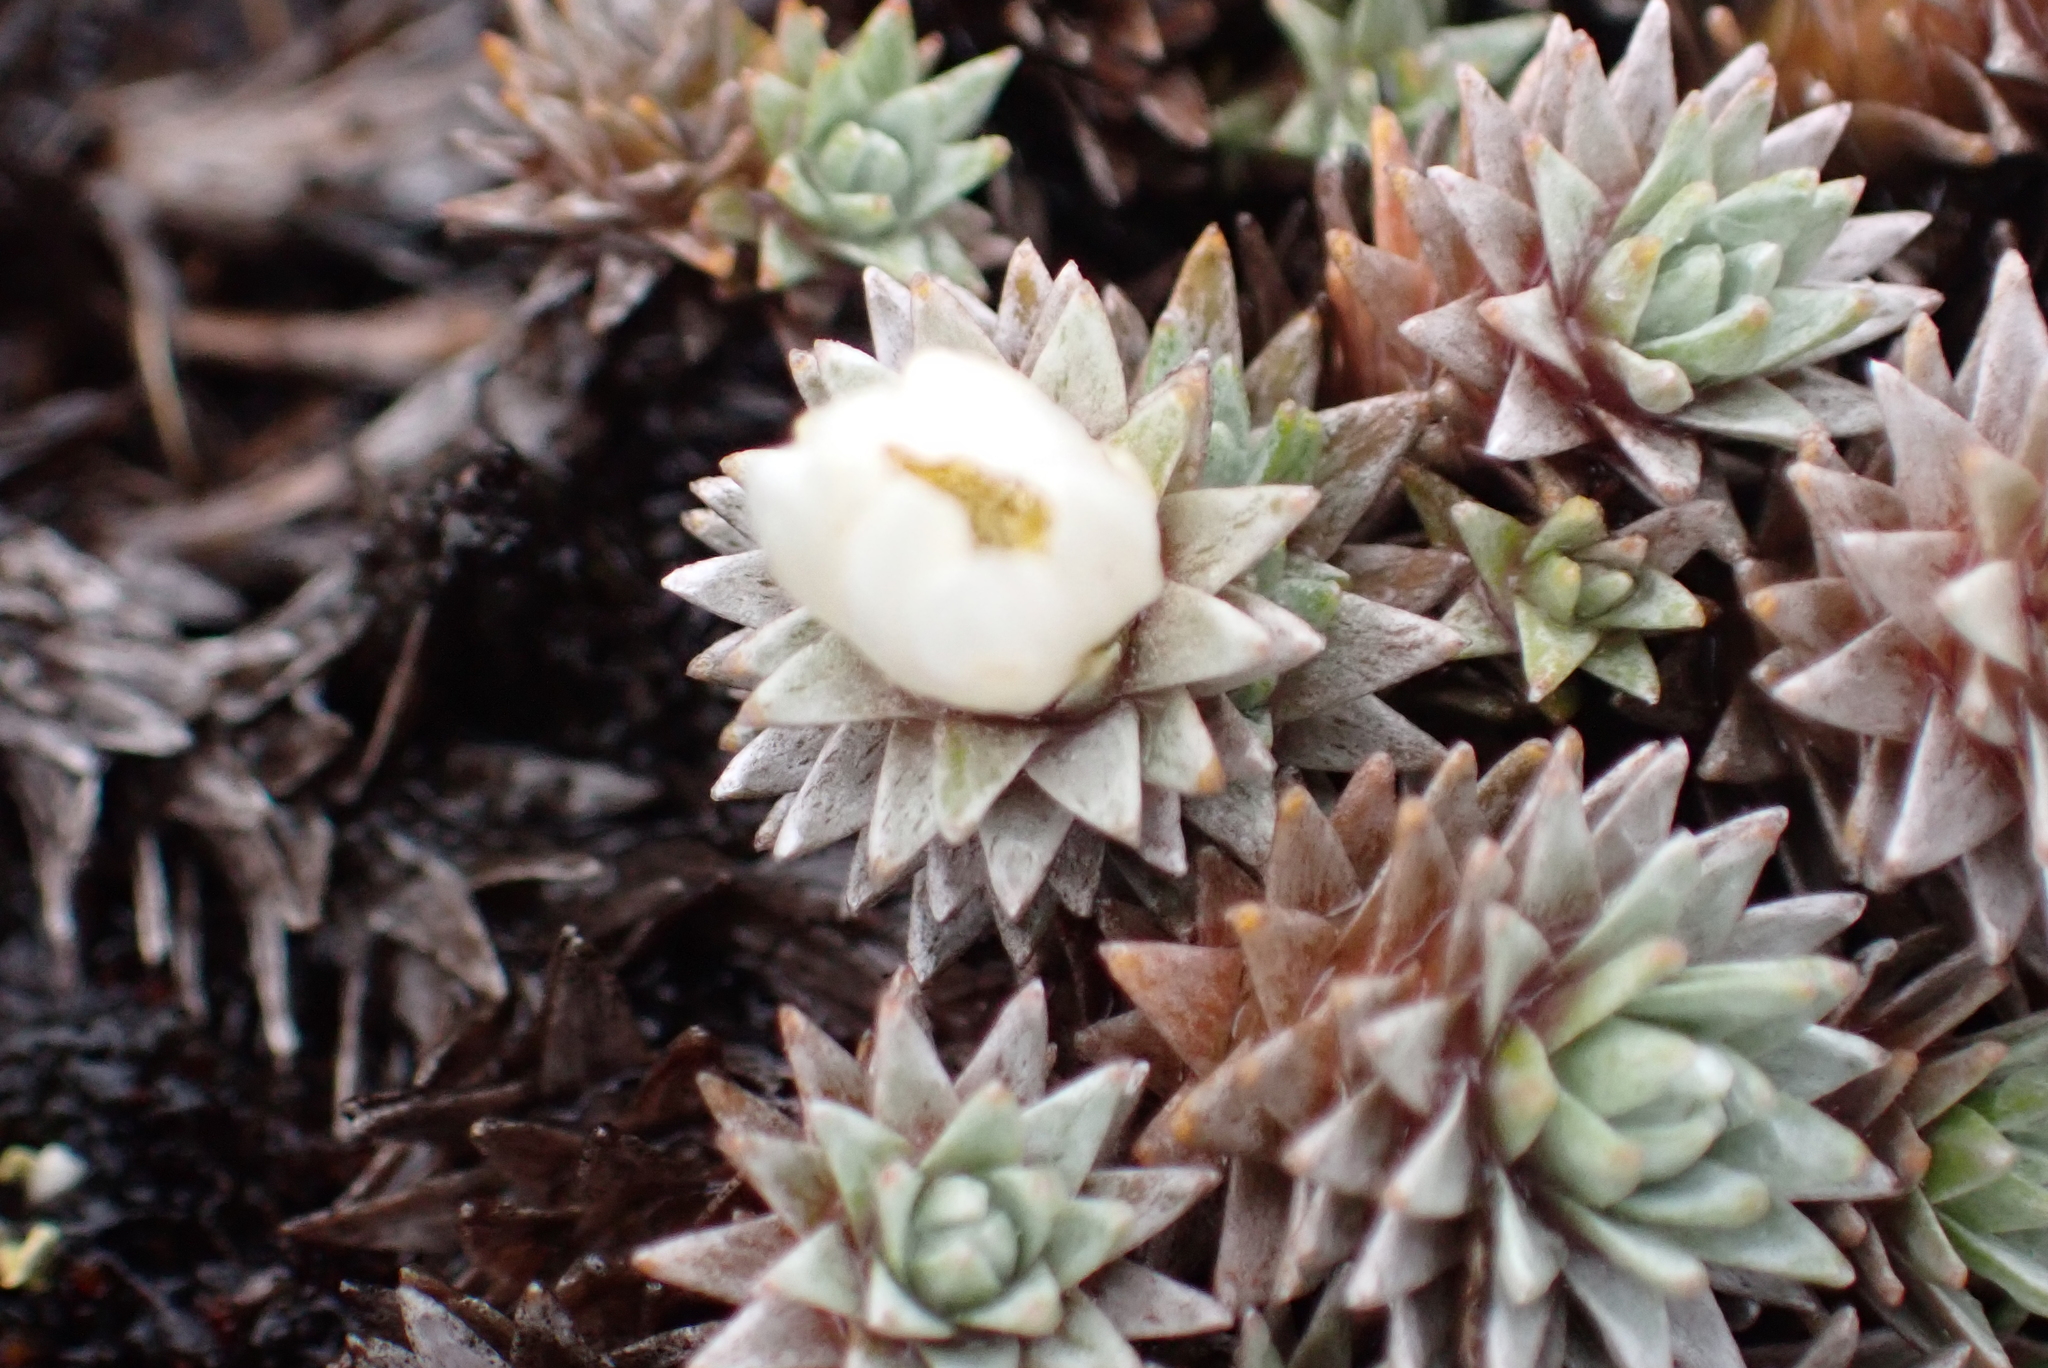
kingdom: Plantae
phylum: Tracheophyta
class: Magnoliopsida
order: Asterales
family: Asteraceae
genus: Raoulia
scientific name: Raoulia grandiflora
